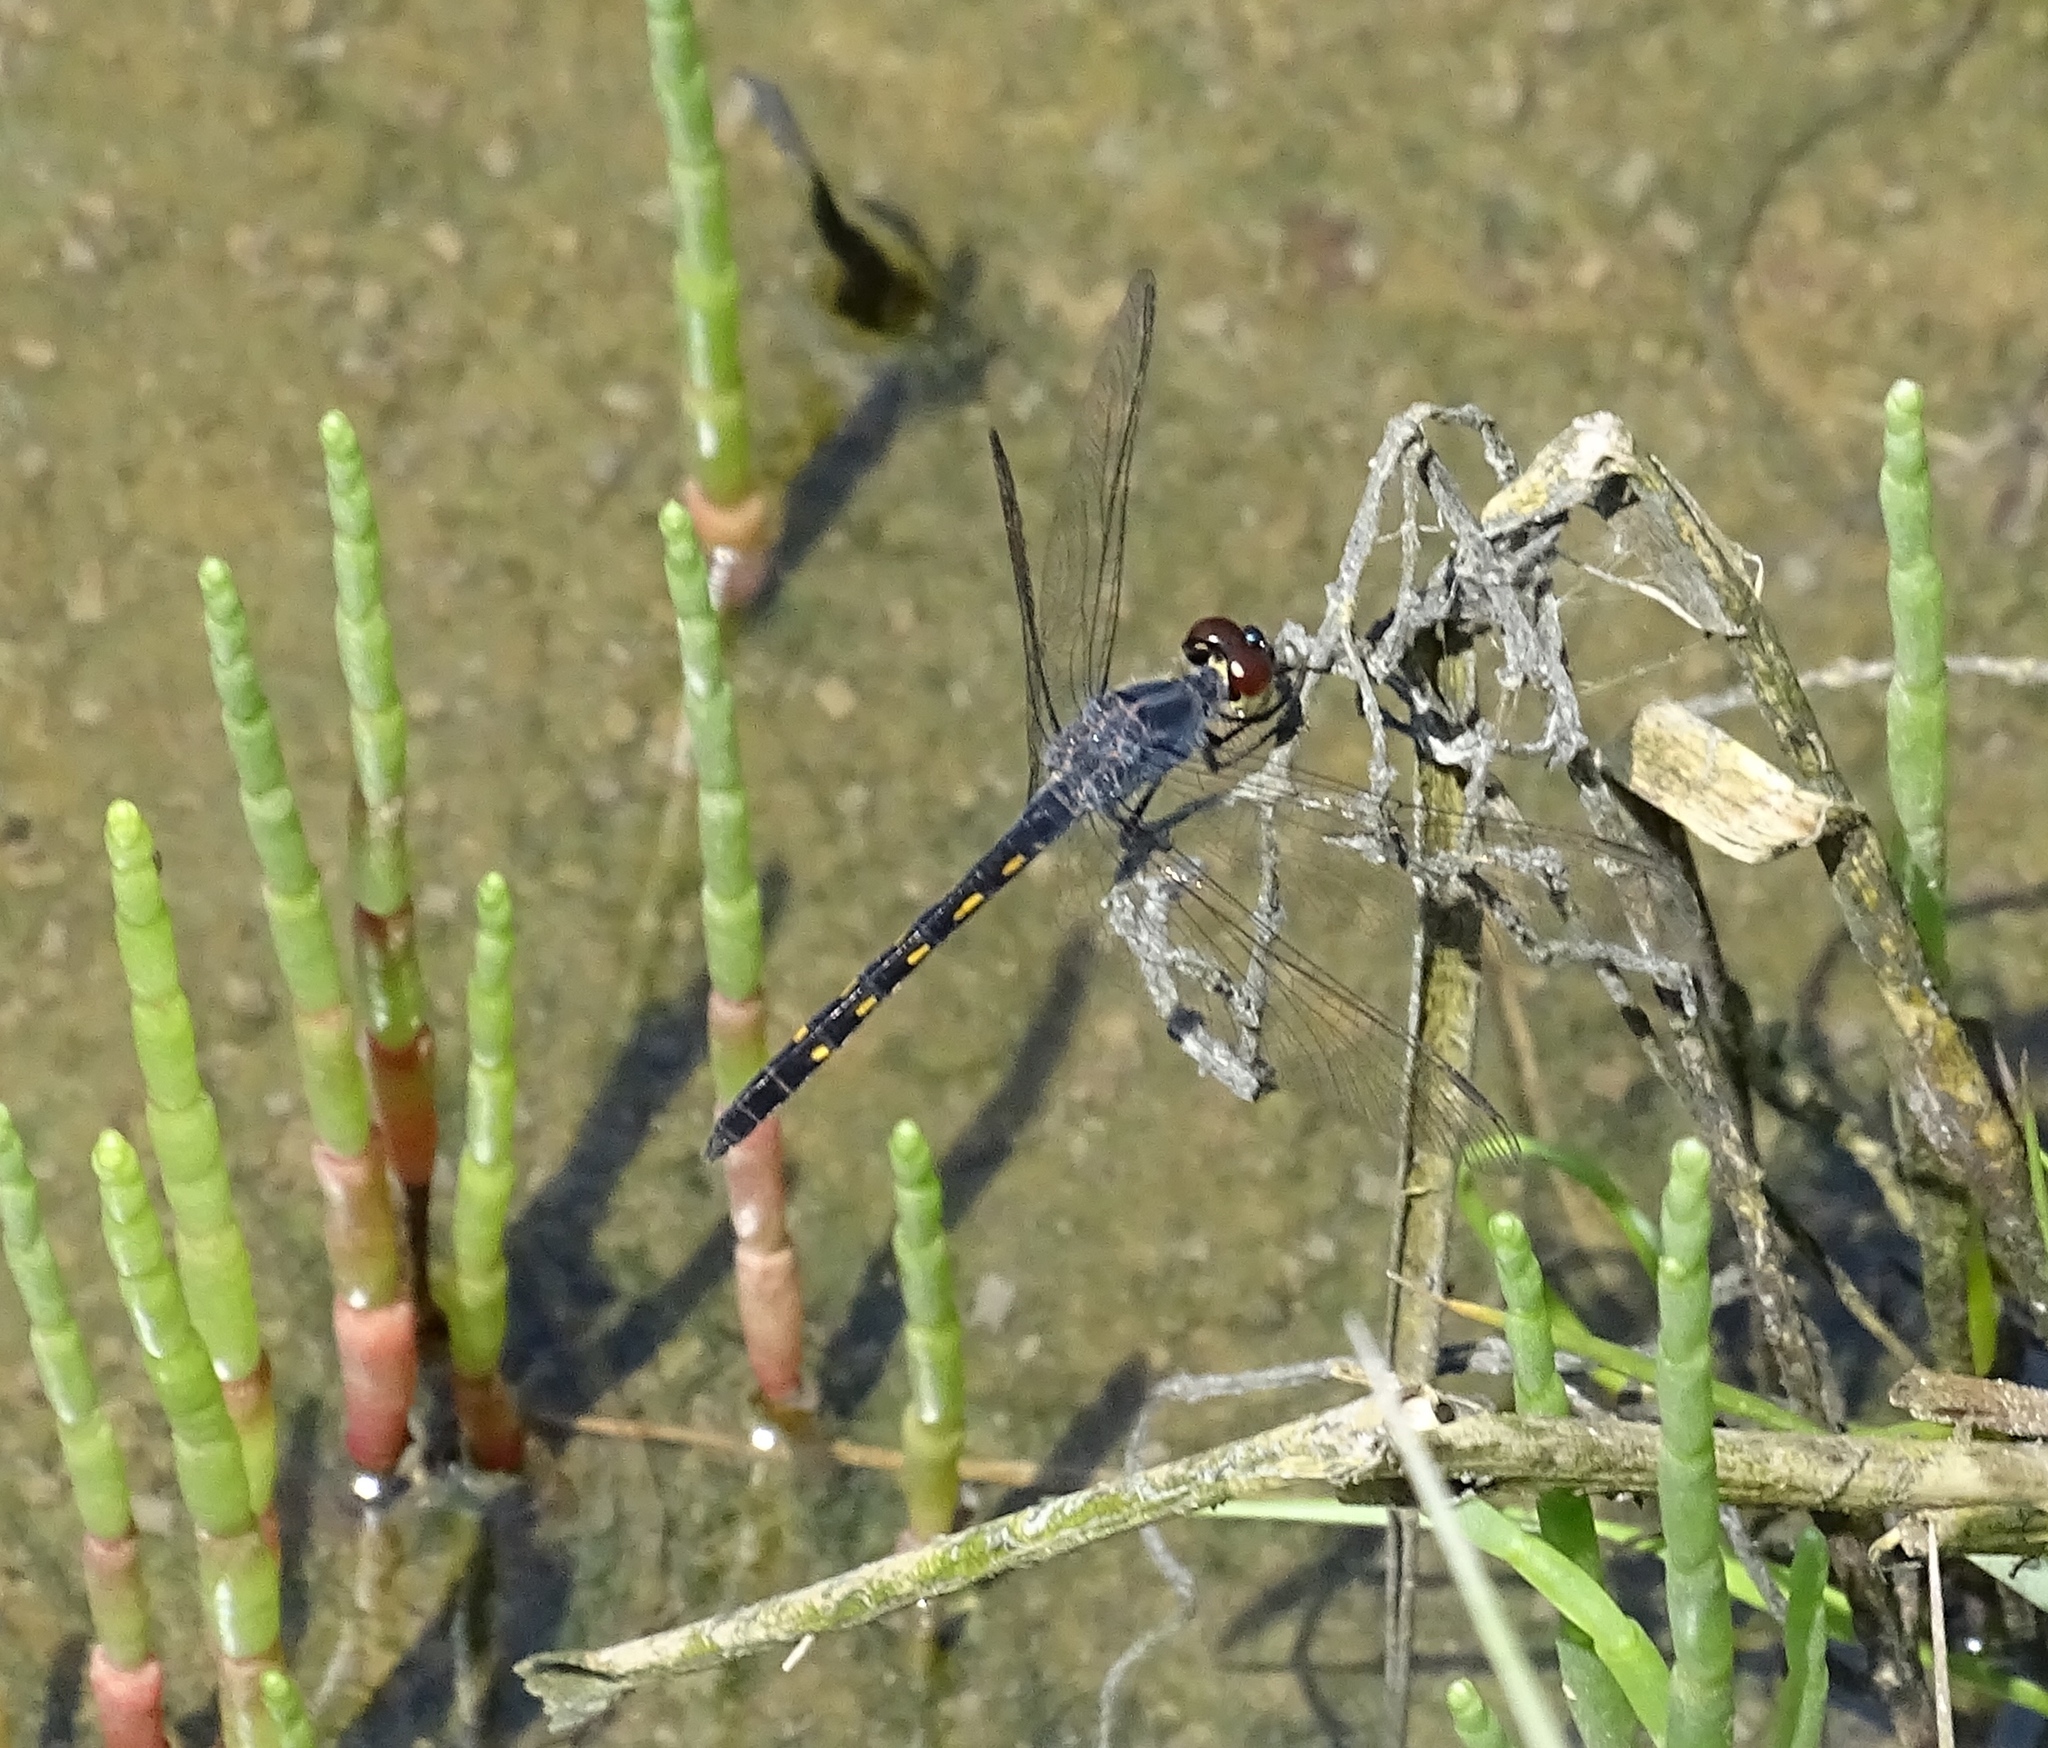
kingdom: Animalia
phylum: Arthropoda
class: Insecta
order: Odonata
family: Libellulidae
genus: Erythrodiplax
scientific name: Erythrodiplax berenice
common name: Seaside dragonlet
